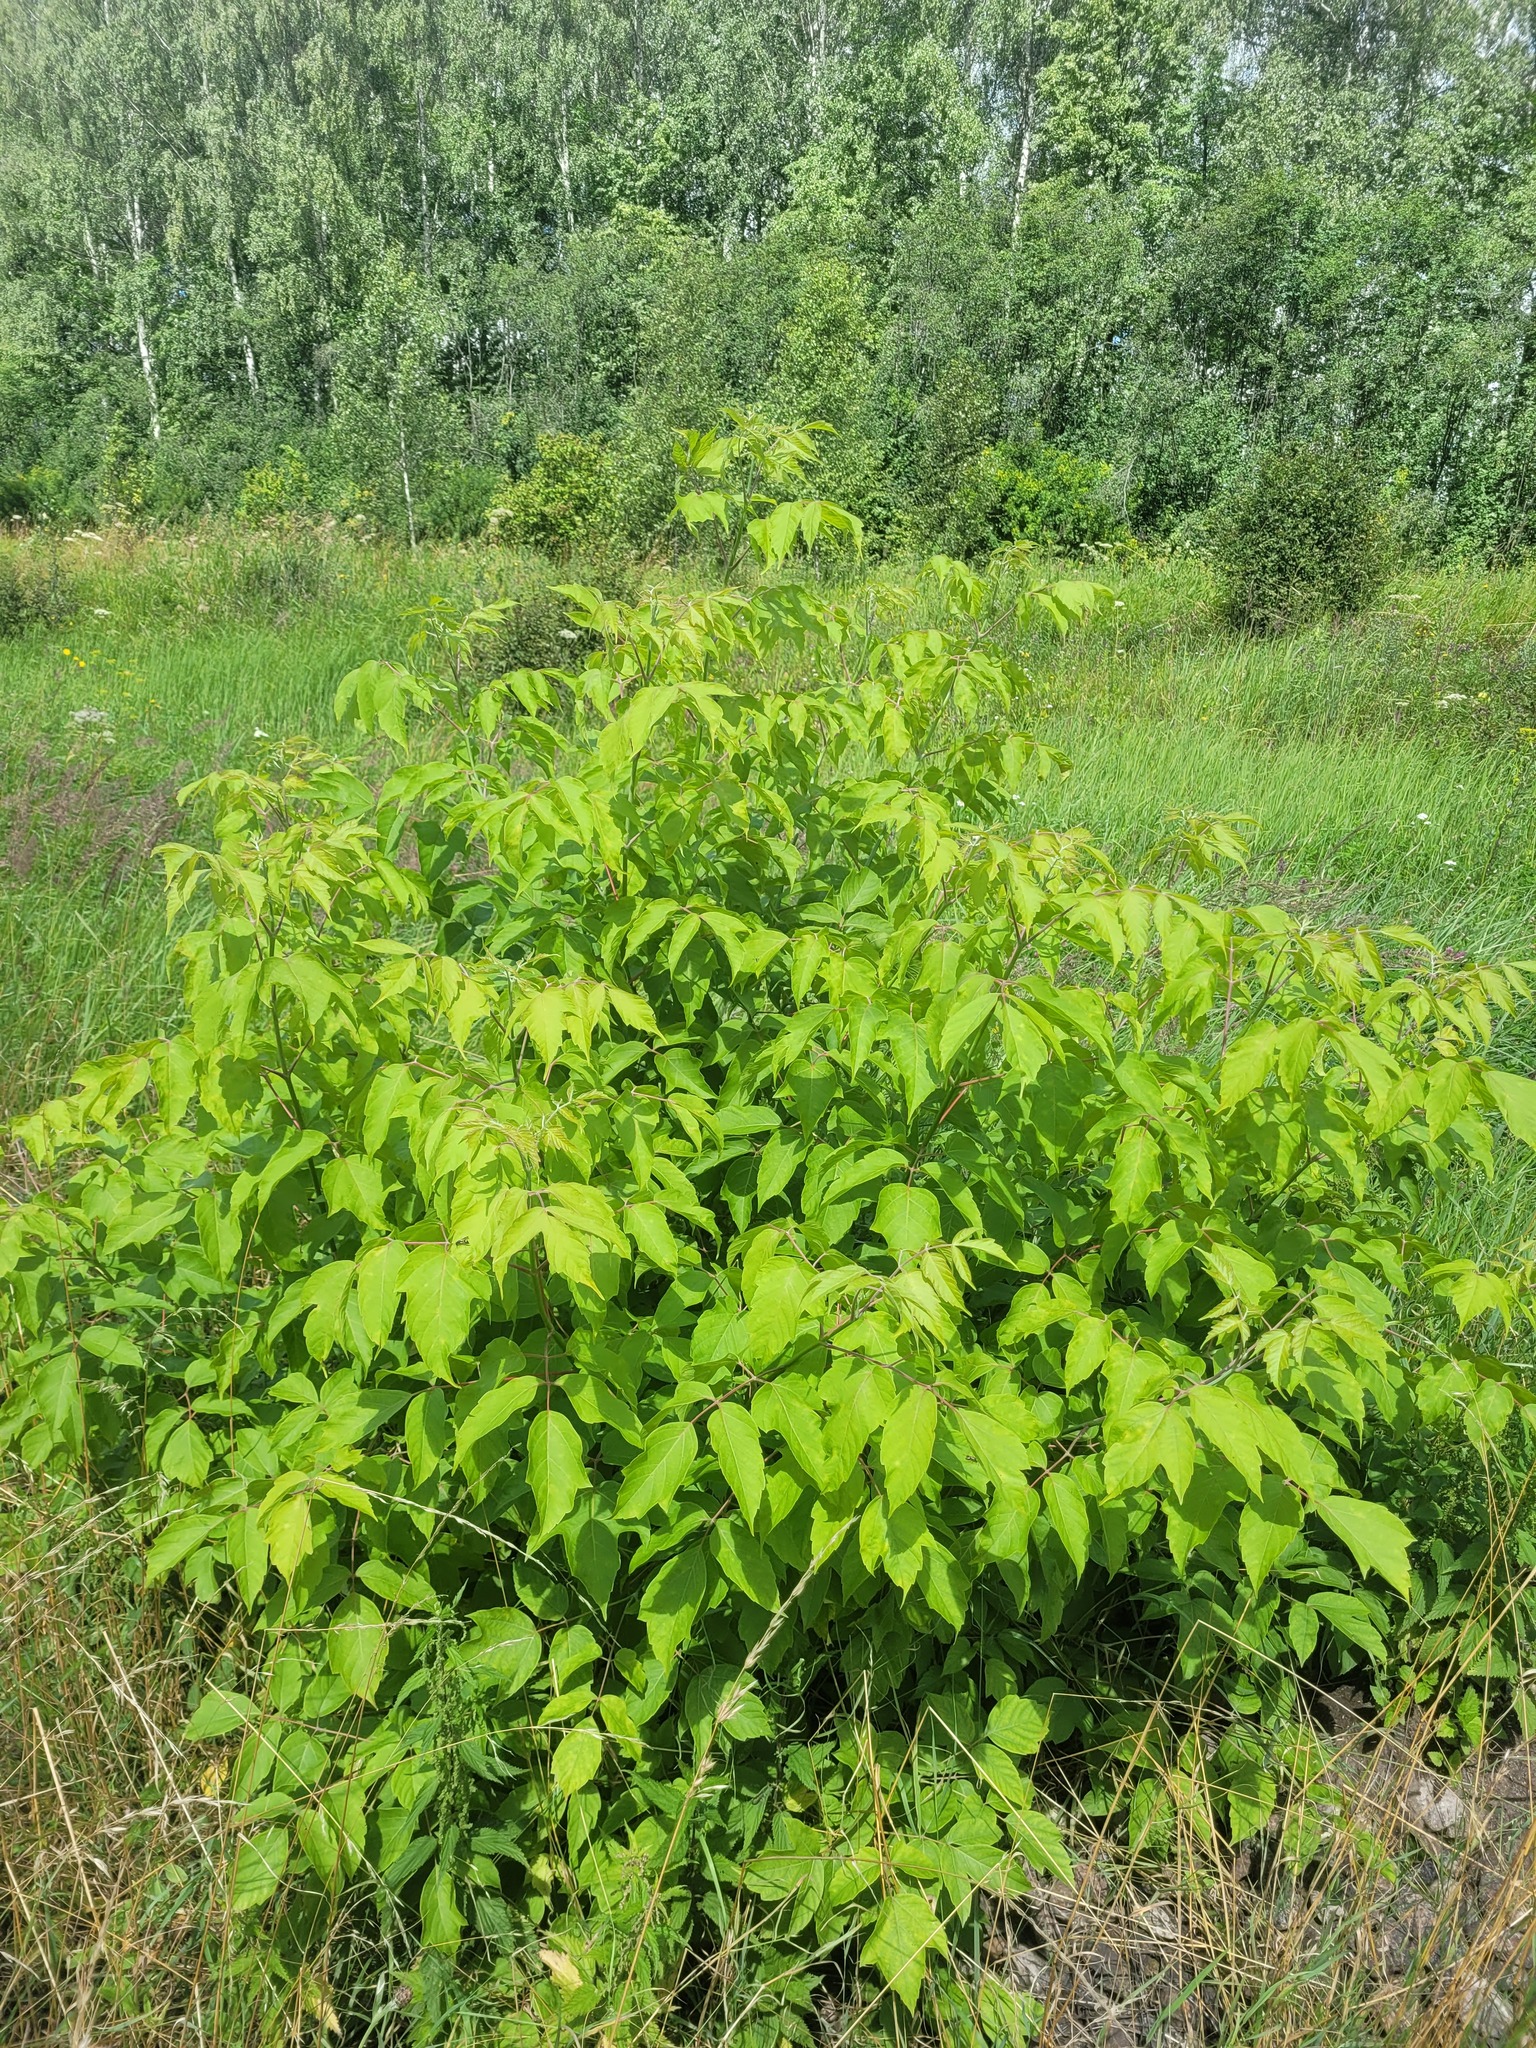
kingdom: Plantae
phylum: Tracheophyta
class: Magnoliopsida
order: Sapindales
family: Sapindaceae
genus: Acer
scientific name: Acer negundo
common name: Ashleaf maple
